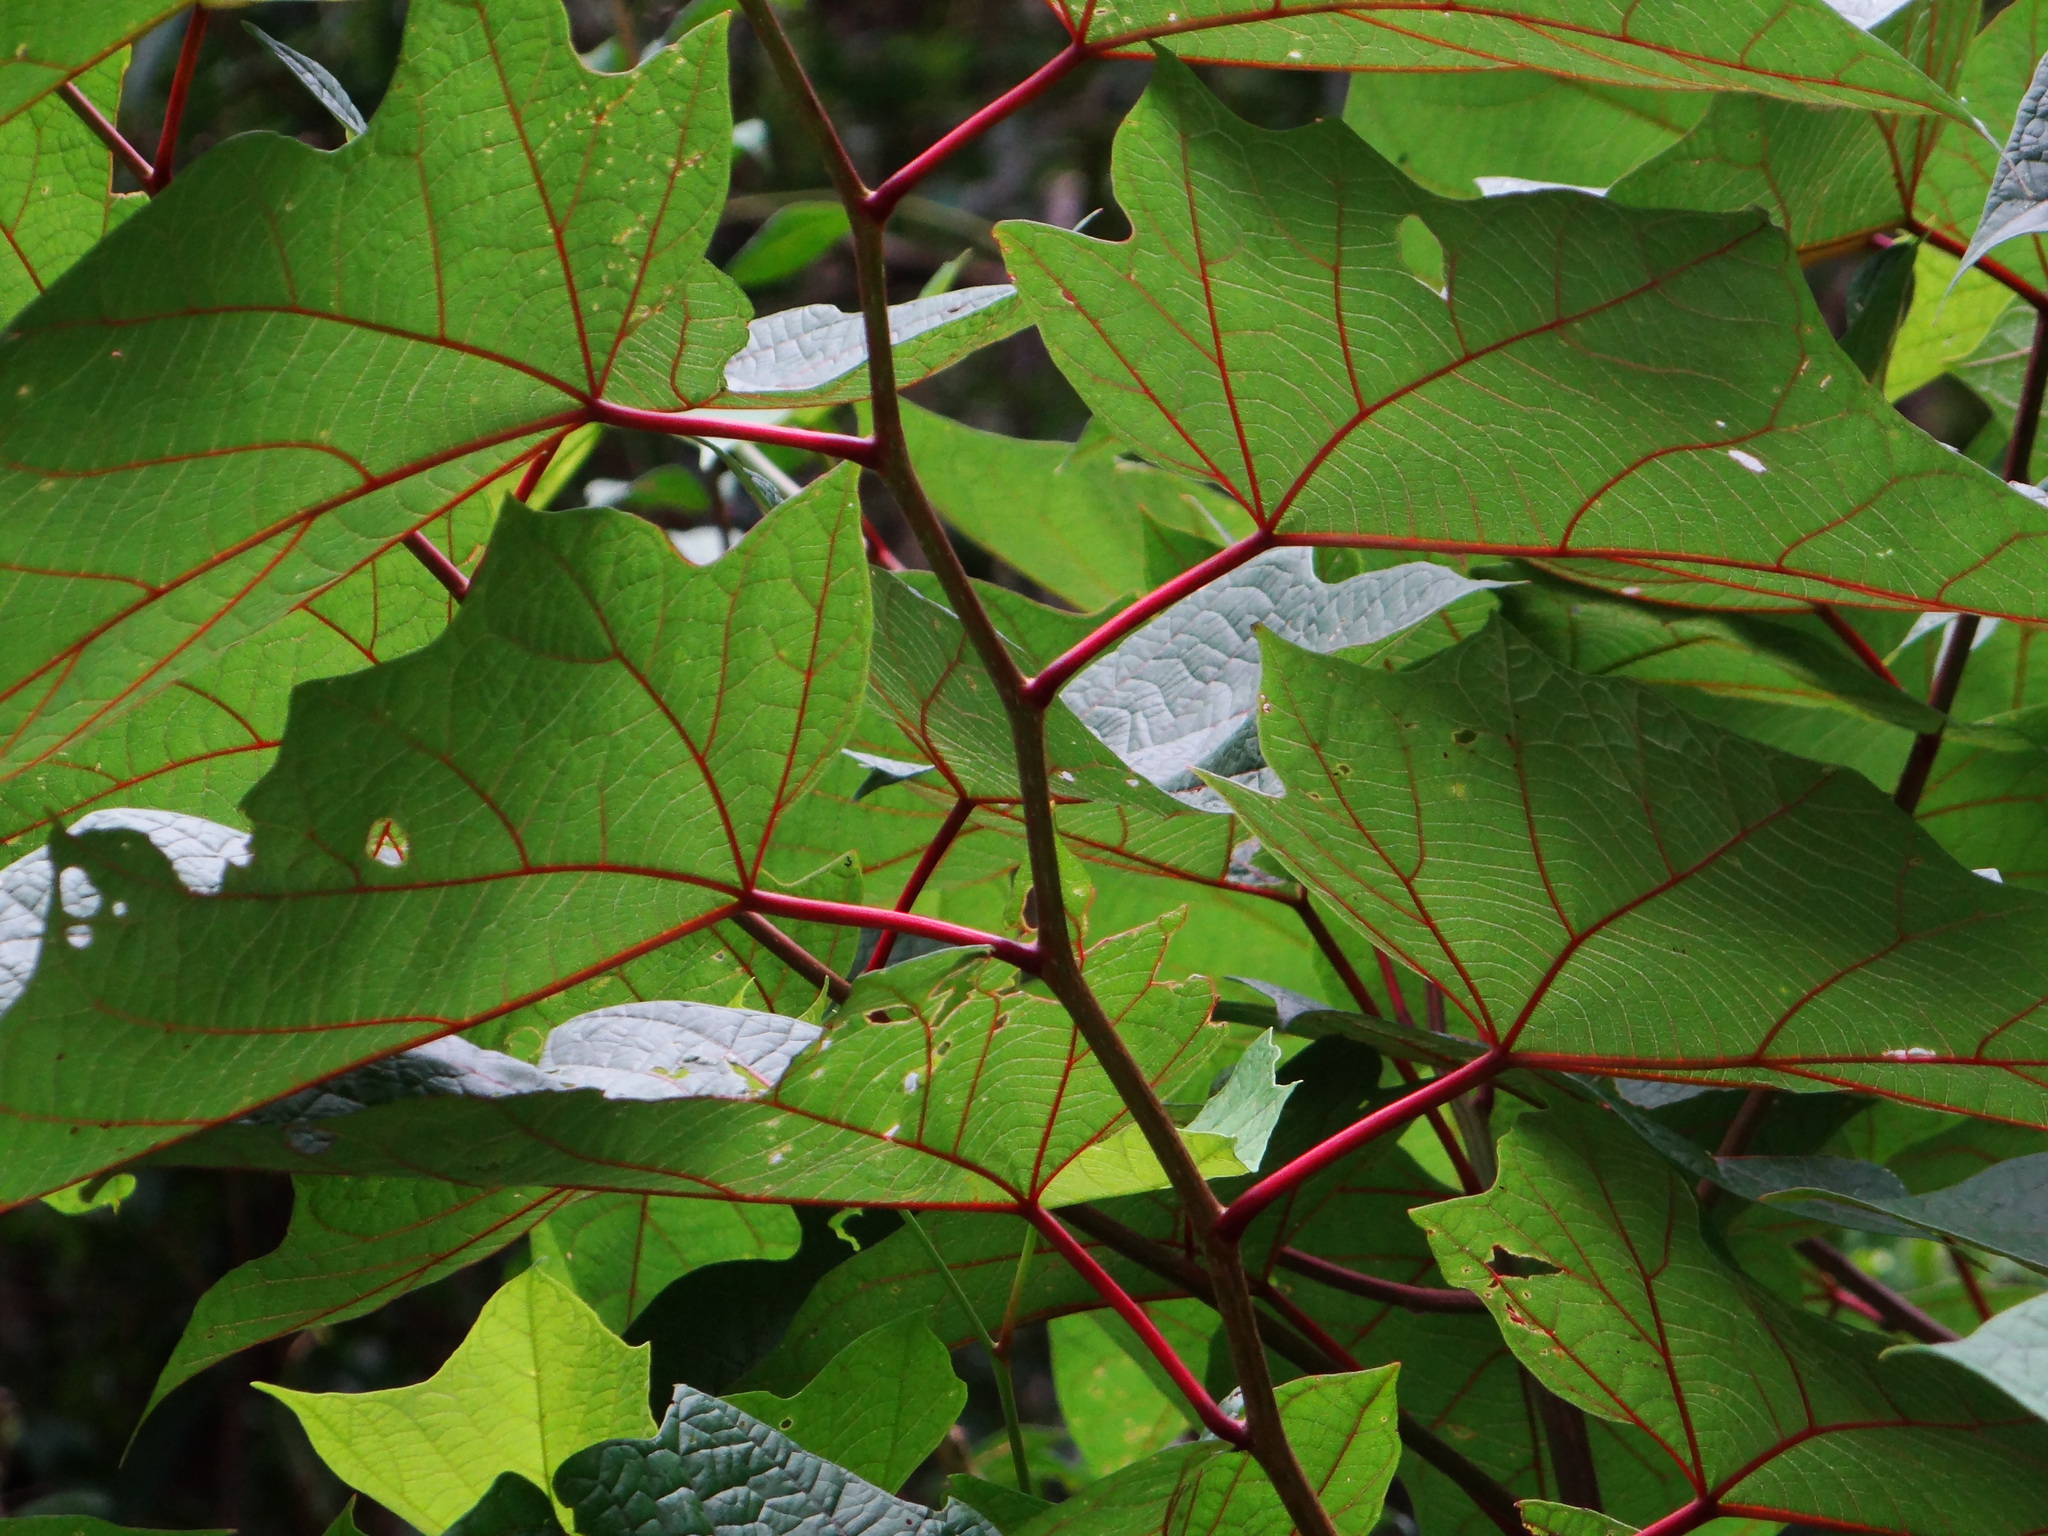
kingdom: Plantae
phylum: Tracheophyta
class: Magnoliopsida
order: Cornales
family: Cornaceae
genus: Alangium
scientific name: Alangium chinense
